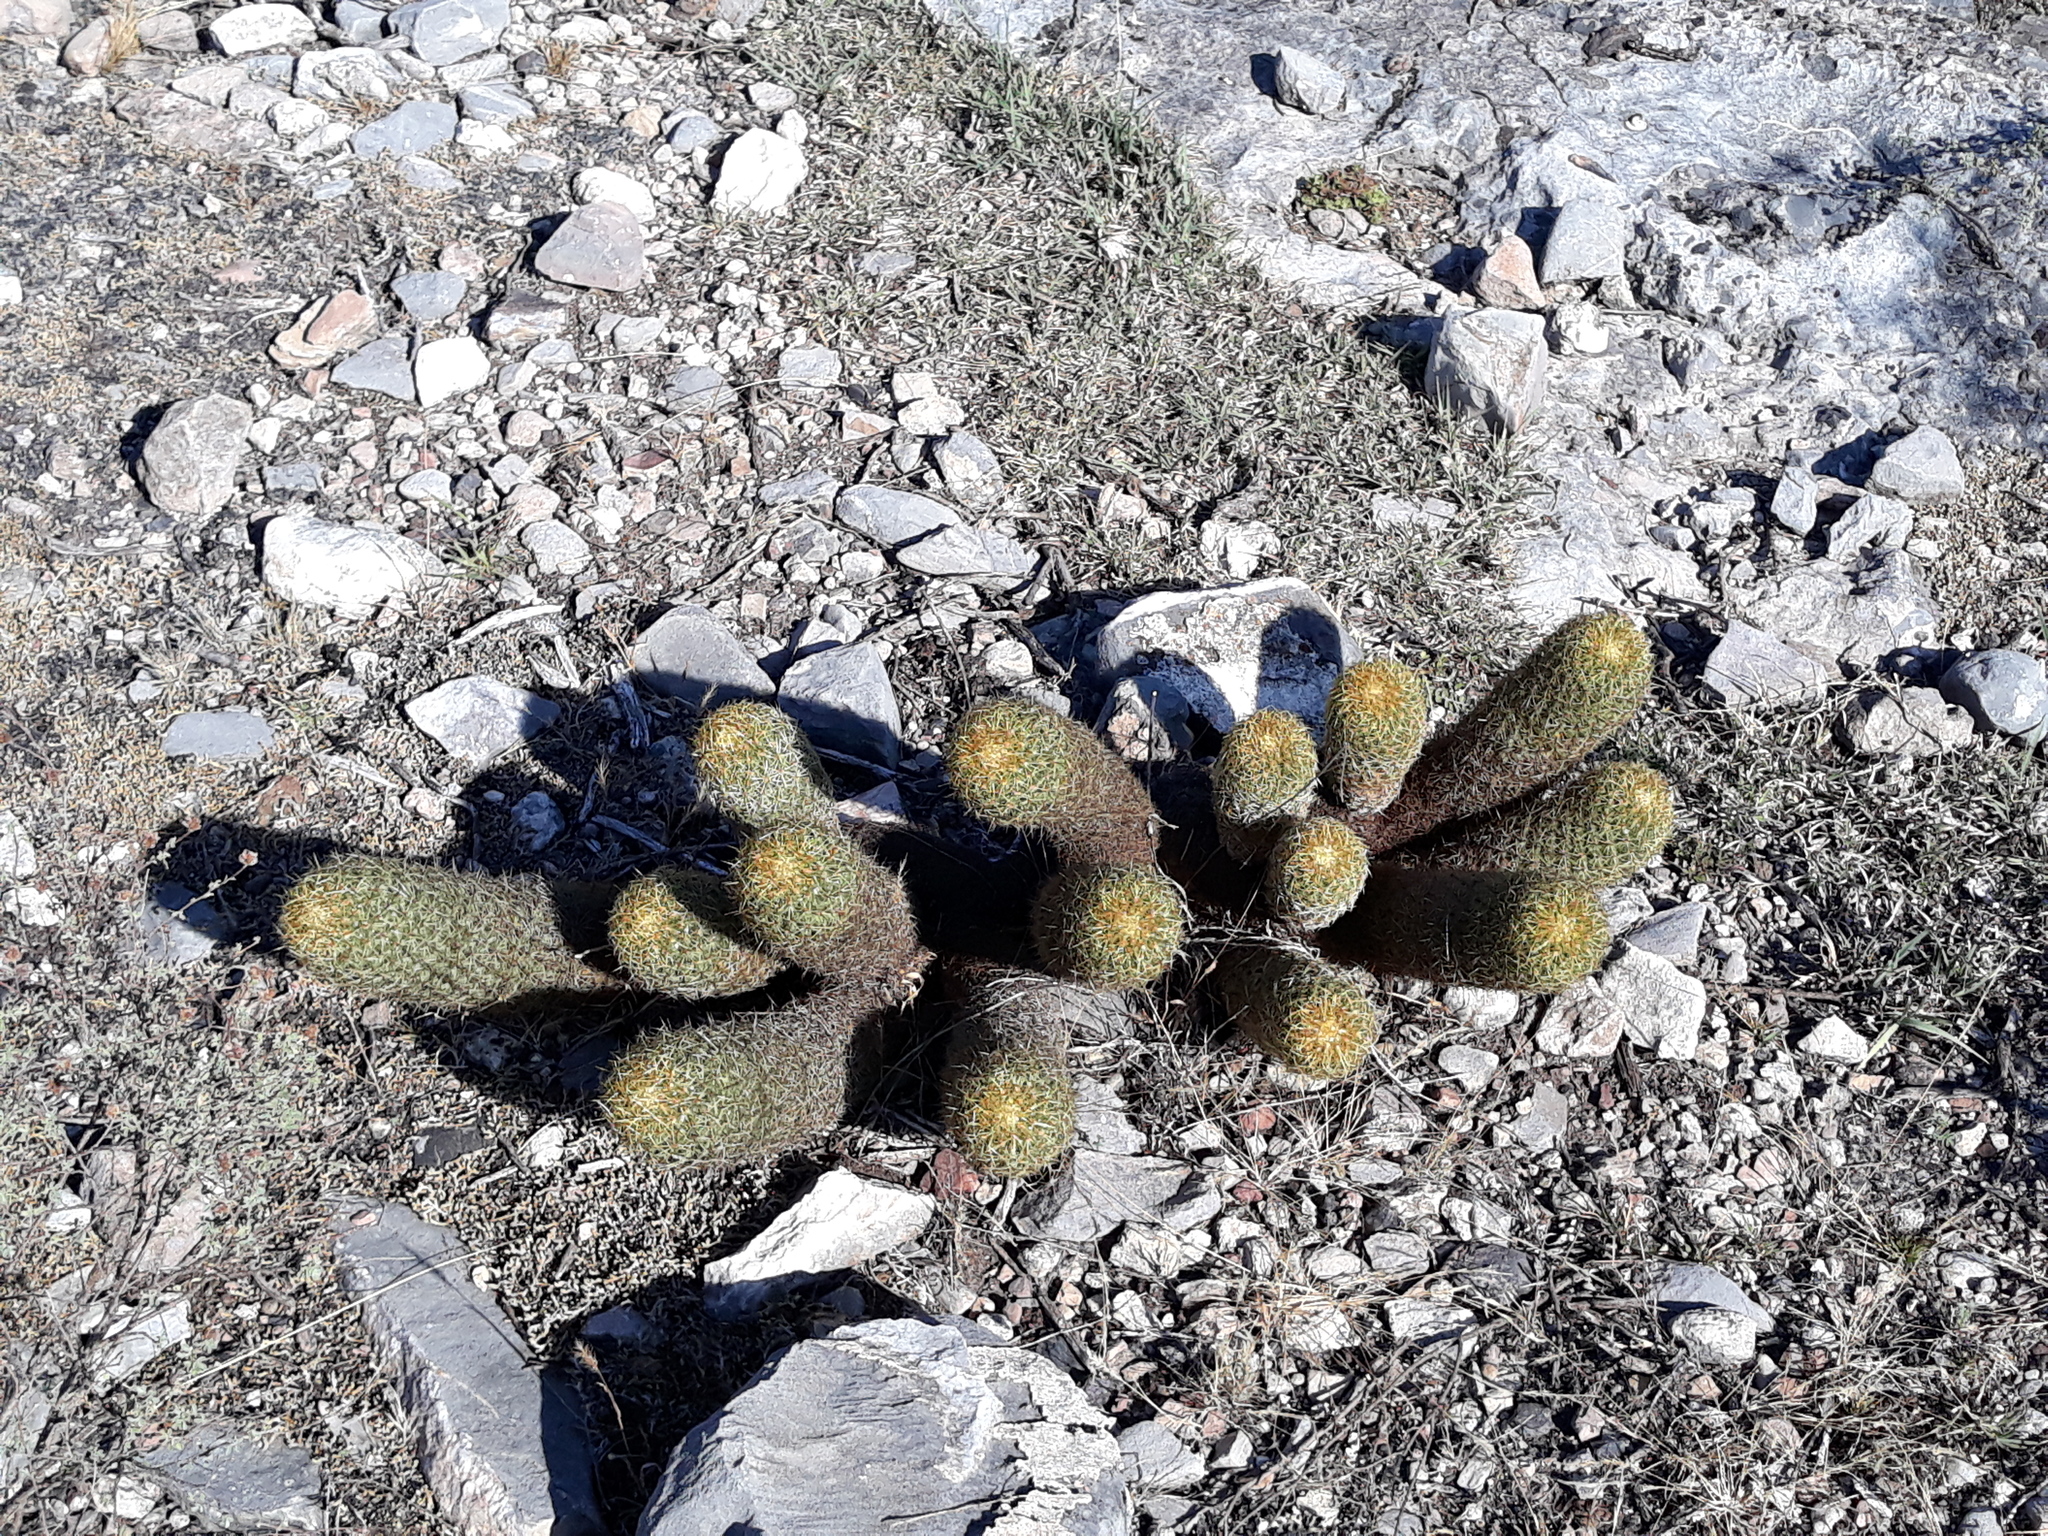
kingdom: Plantae
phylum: Tracheophyta
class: Magnoliopsida
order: Caryophyllales
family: Cactaceae
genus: Coryphantha
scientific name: Coryphantha erecta
